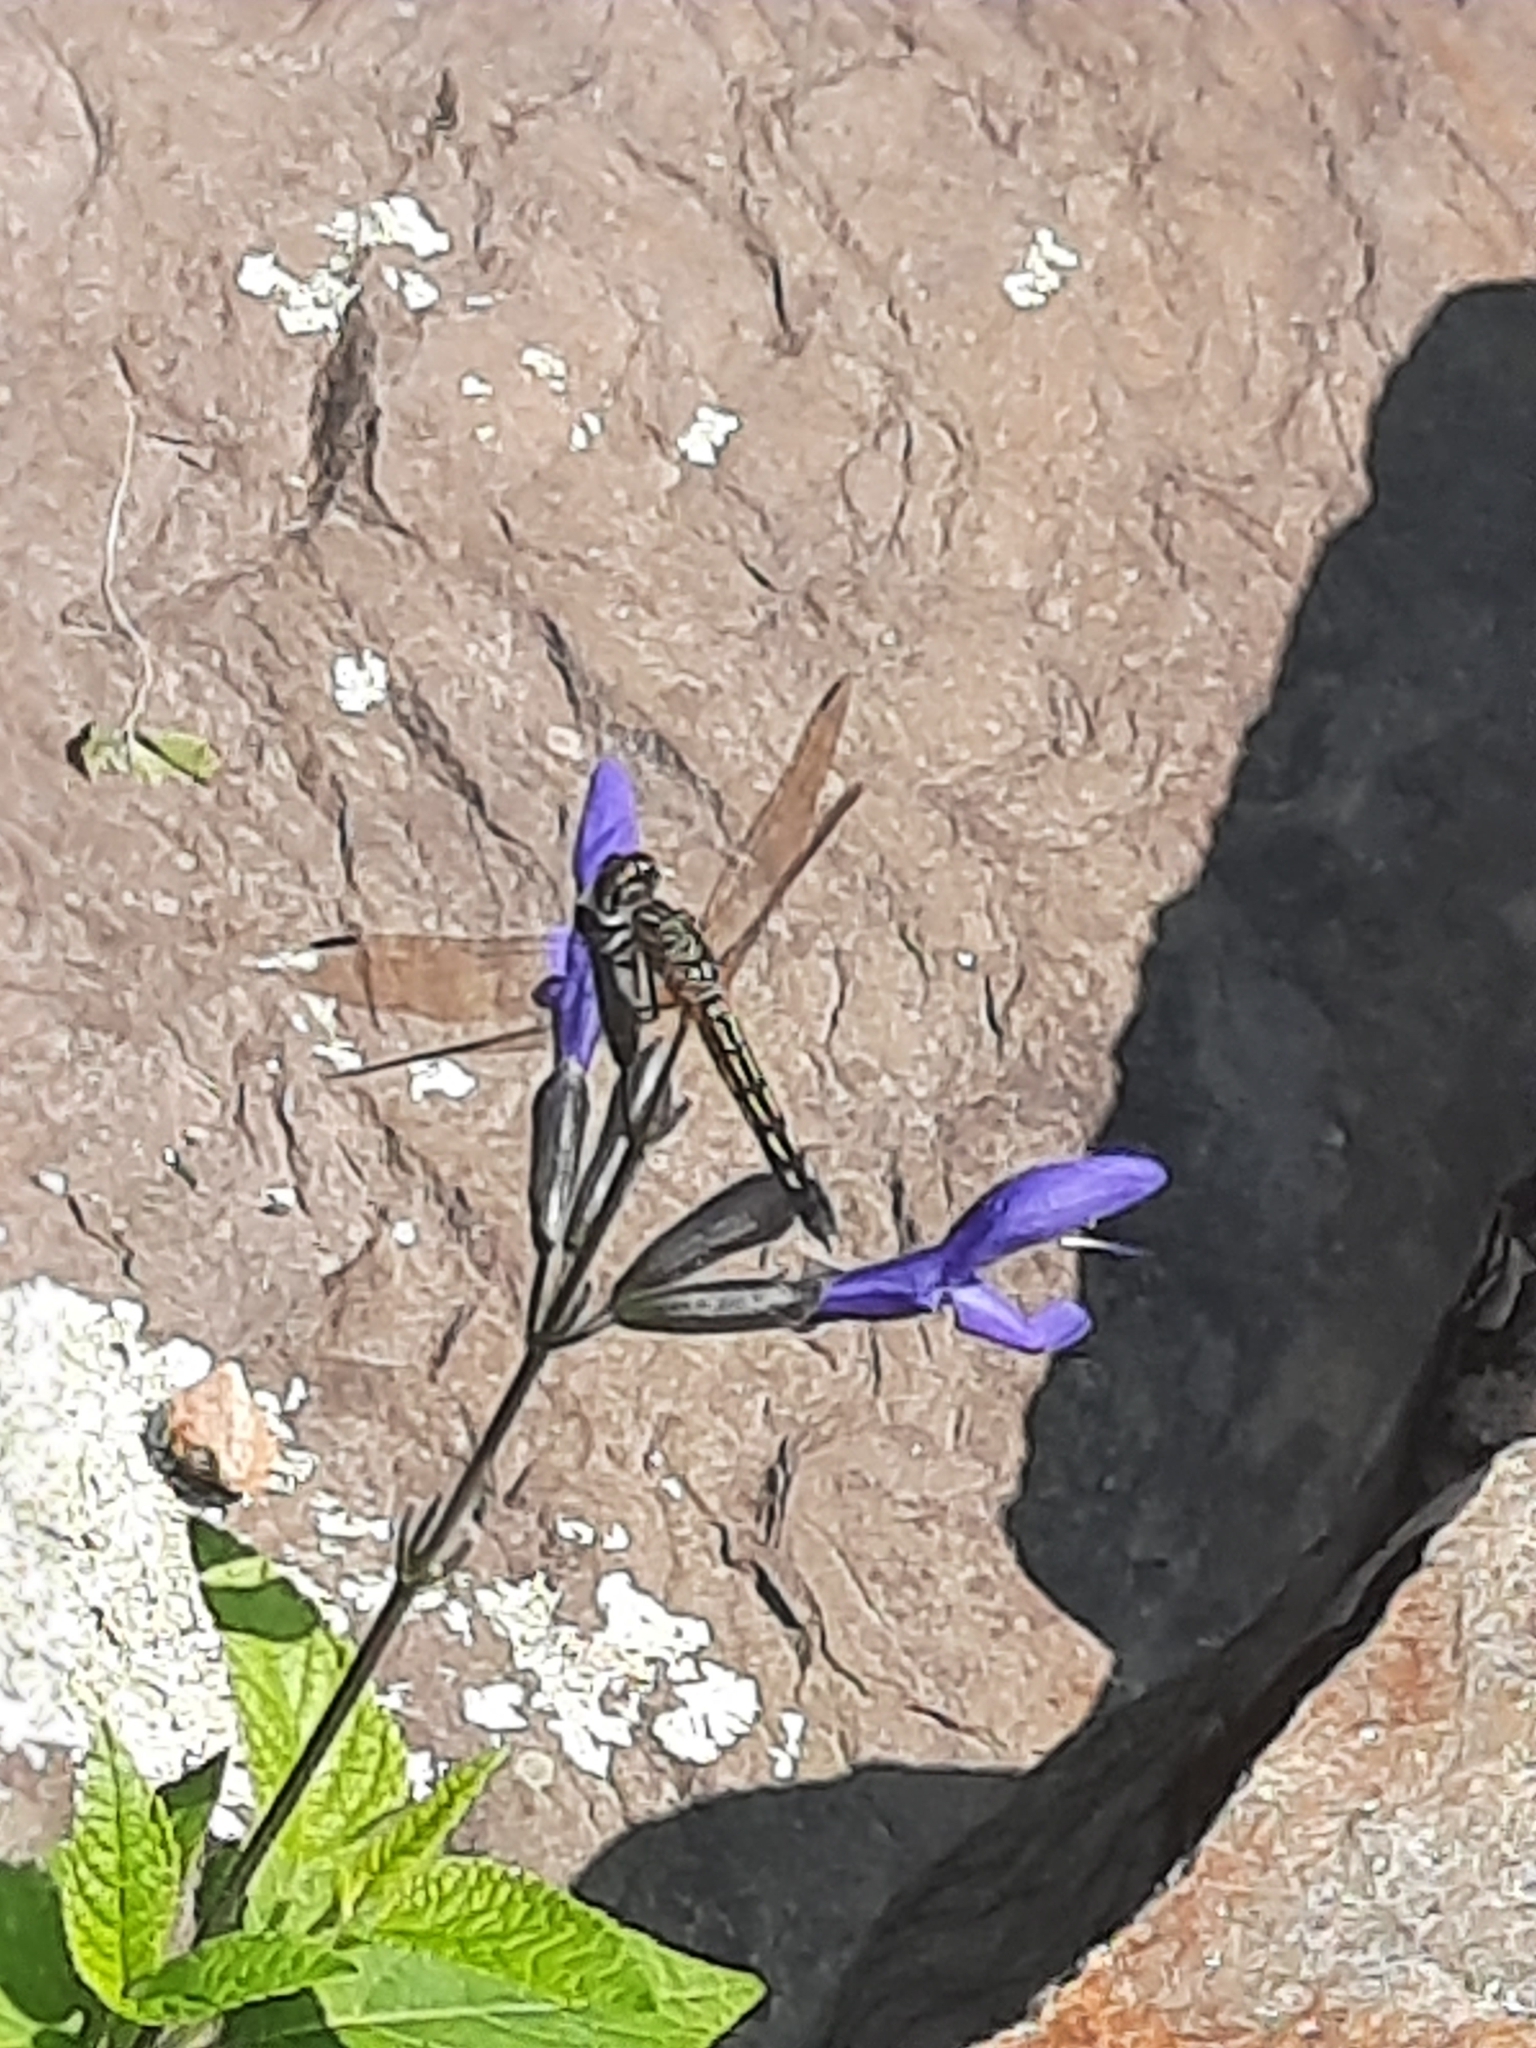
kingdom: Animalia
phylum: Arthropoda
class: Insecta
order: Odonata
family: Libellulidae
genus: Pachydiplax
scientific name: Pachydiplax longipennis
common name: Blue dasher
